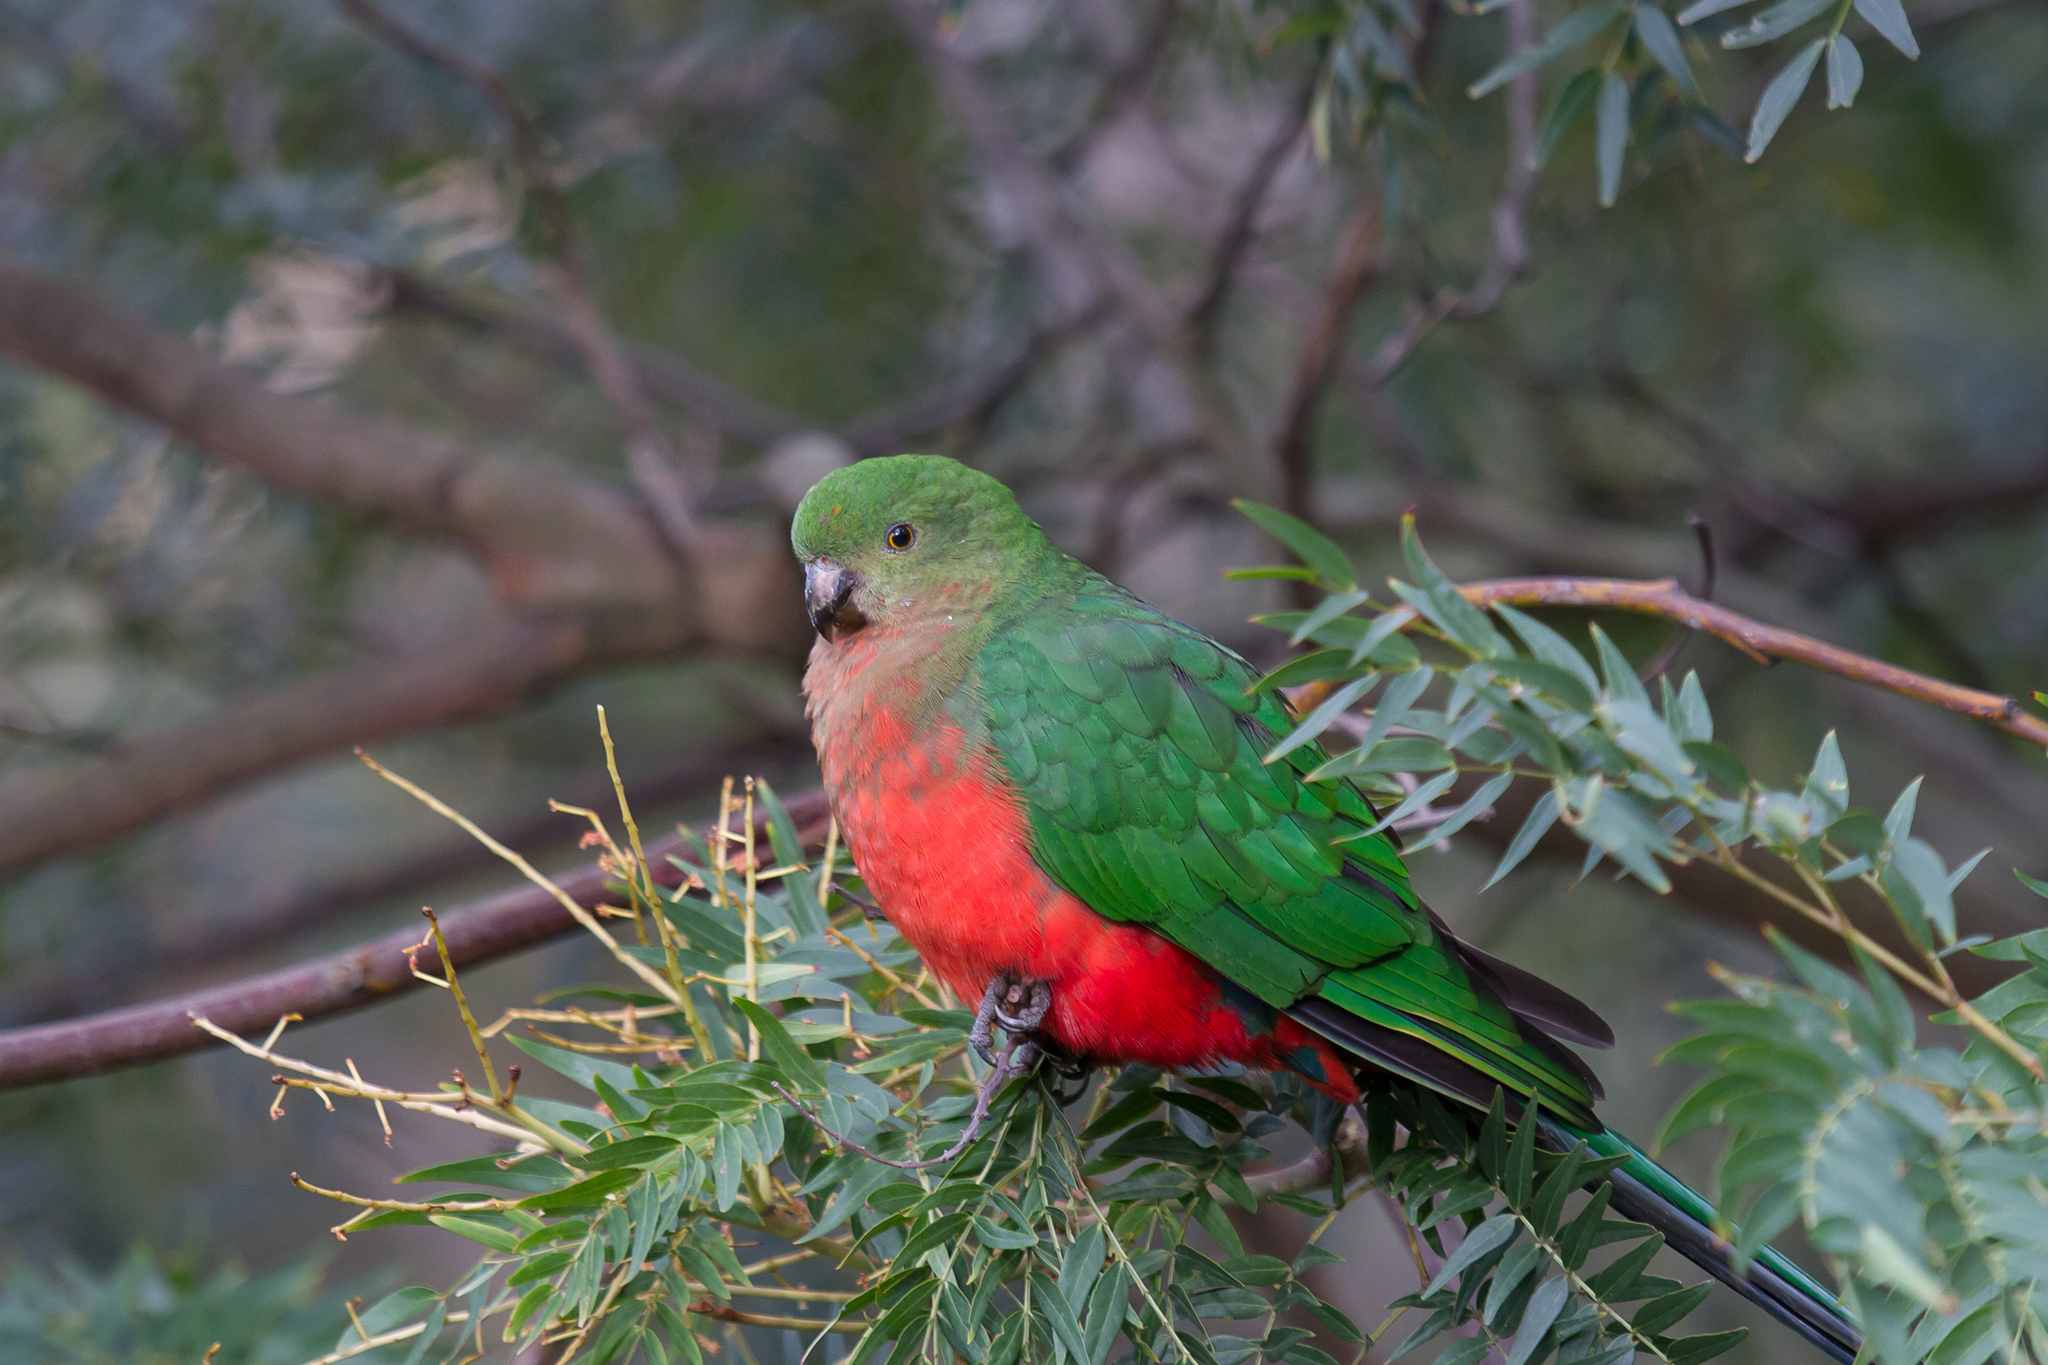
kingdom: Animalia
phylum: Chordata
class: Aves
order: Psittaciformes
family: Psittacidae
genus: Alisterus
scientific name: Alisterus scapularis
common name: Australian king parrot
